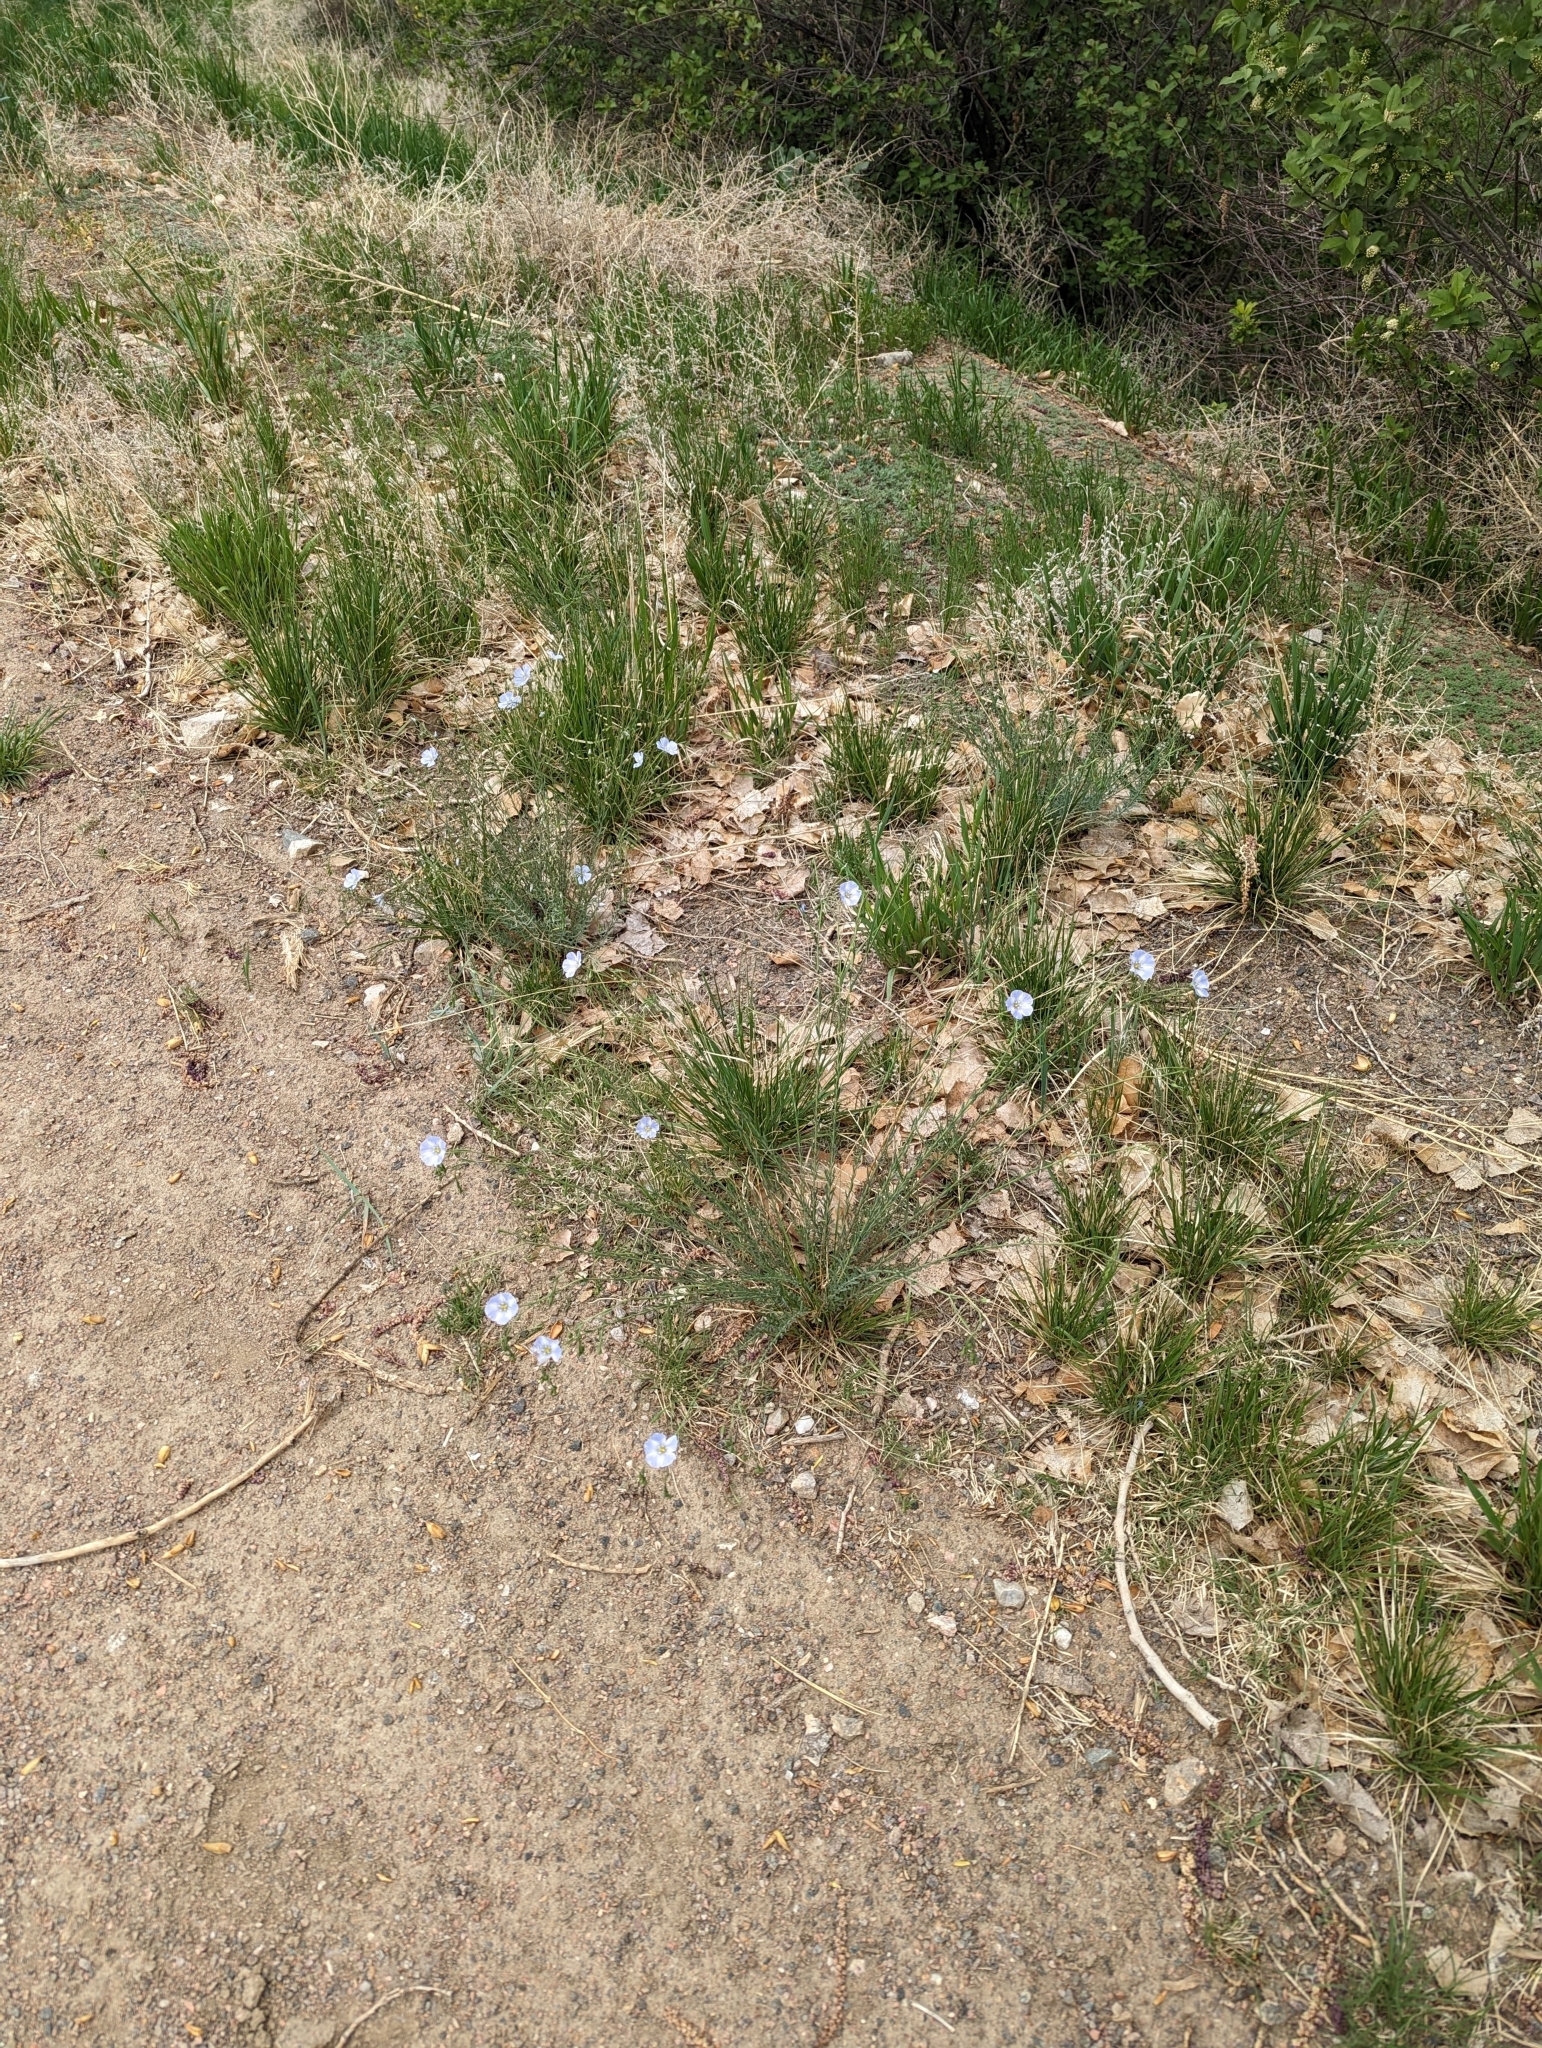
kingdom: Plantae
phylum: Tracheophyta
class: Magnoliopsida
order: Malpighiales
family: Linaceae
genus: Linum
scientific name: Linum lewisii
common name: Prairie flax
